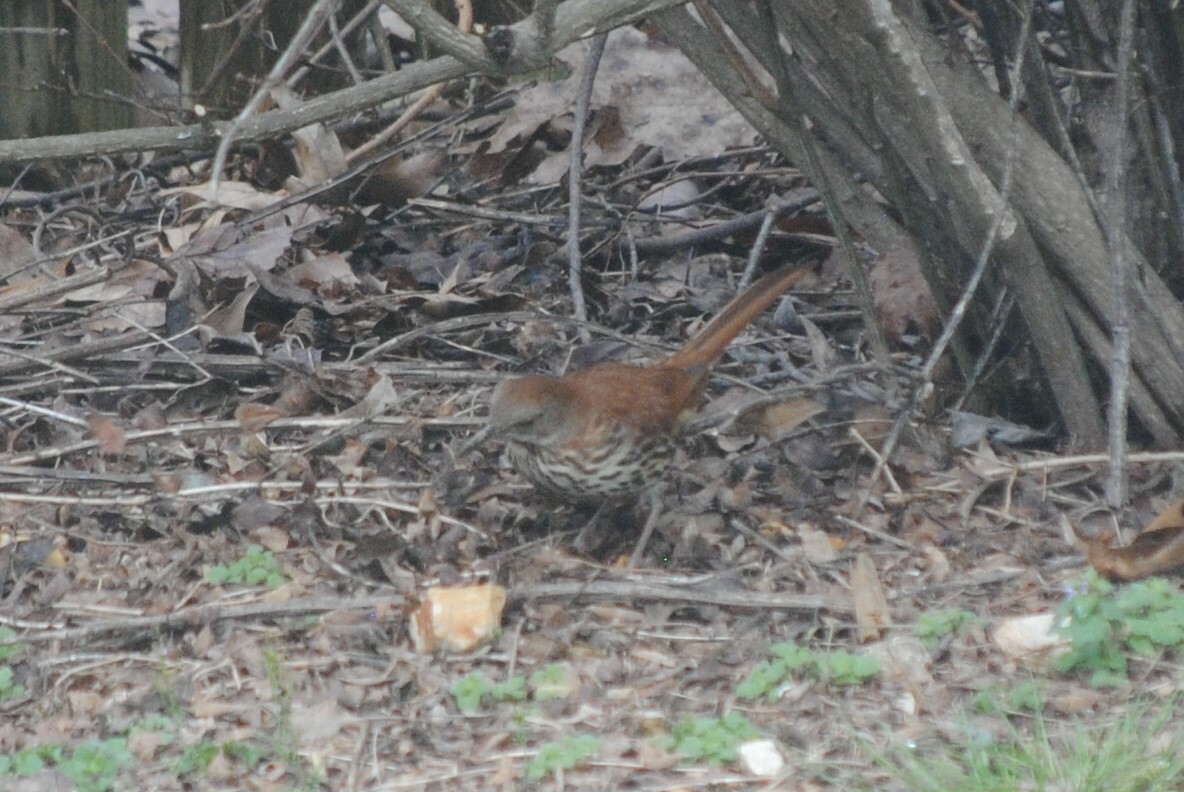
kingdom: Animalia
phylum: Chordata
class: Aves
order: Passeriformes
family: Mimidae
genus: Toxostoma
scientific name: Toxostoma rufum
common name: Brown thrasher
